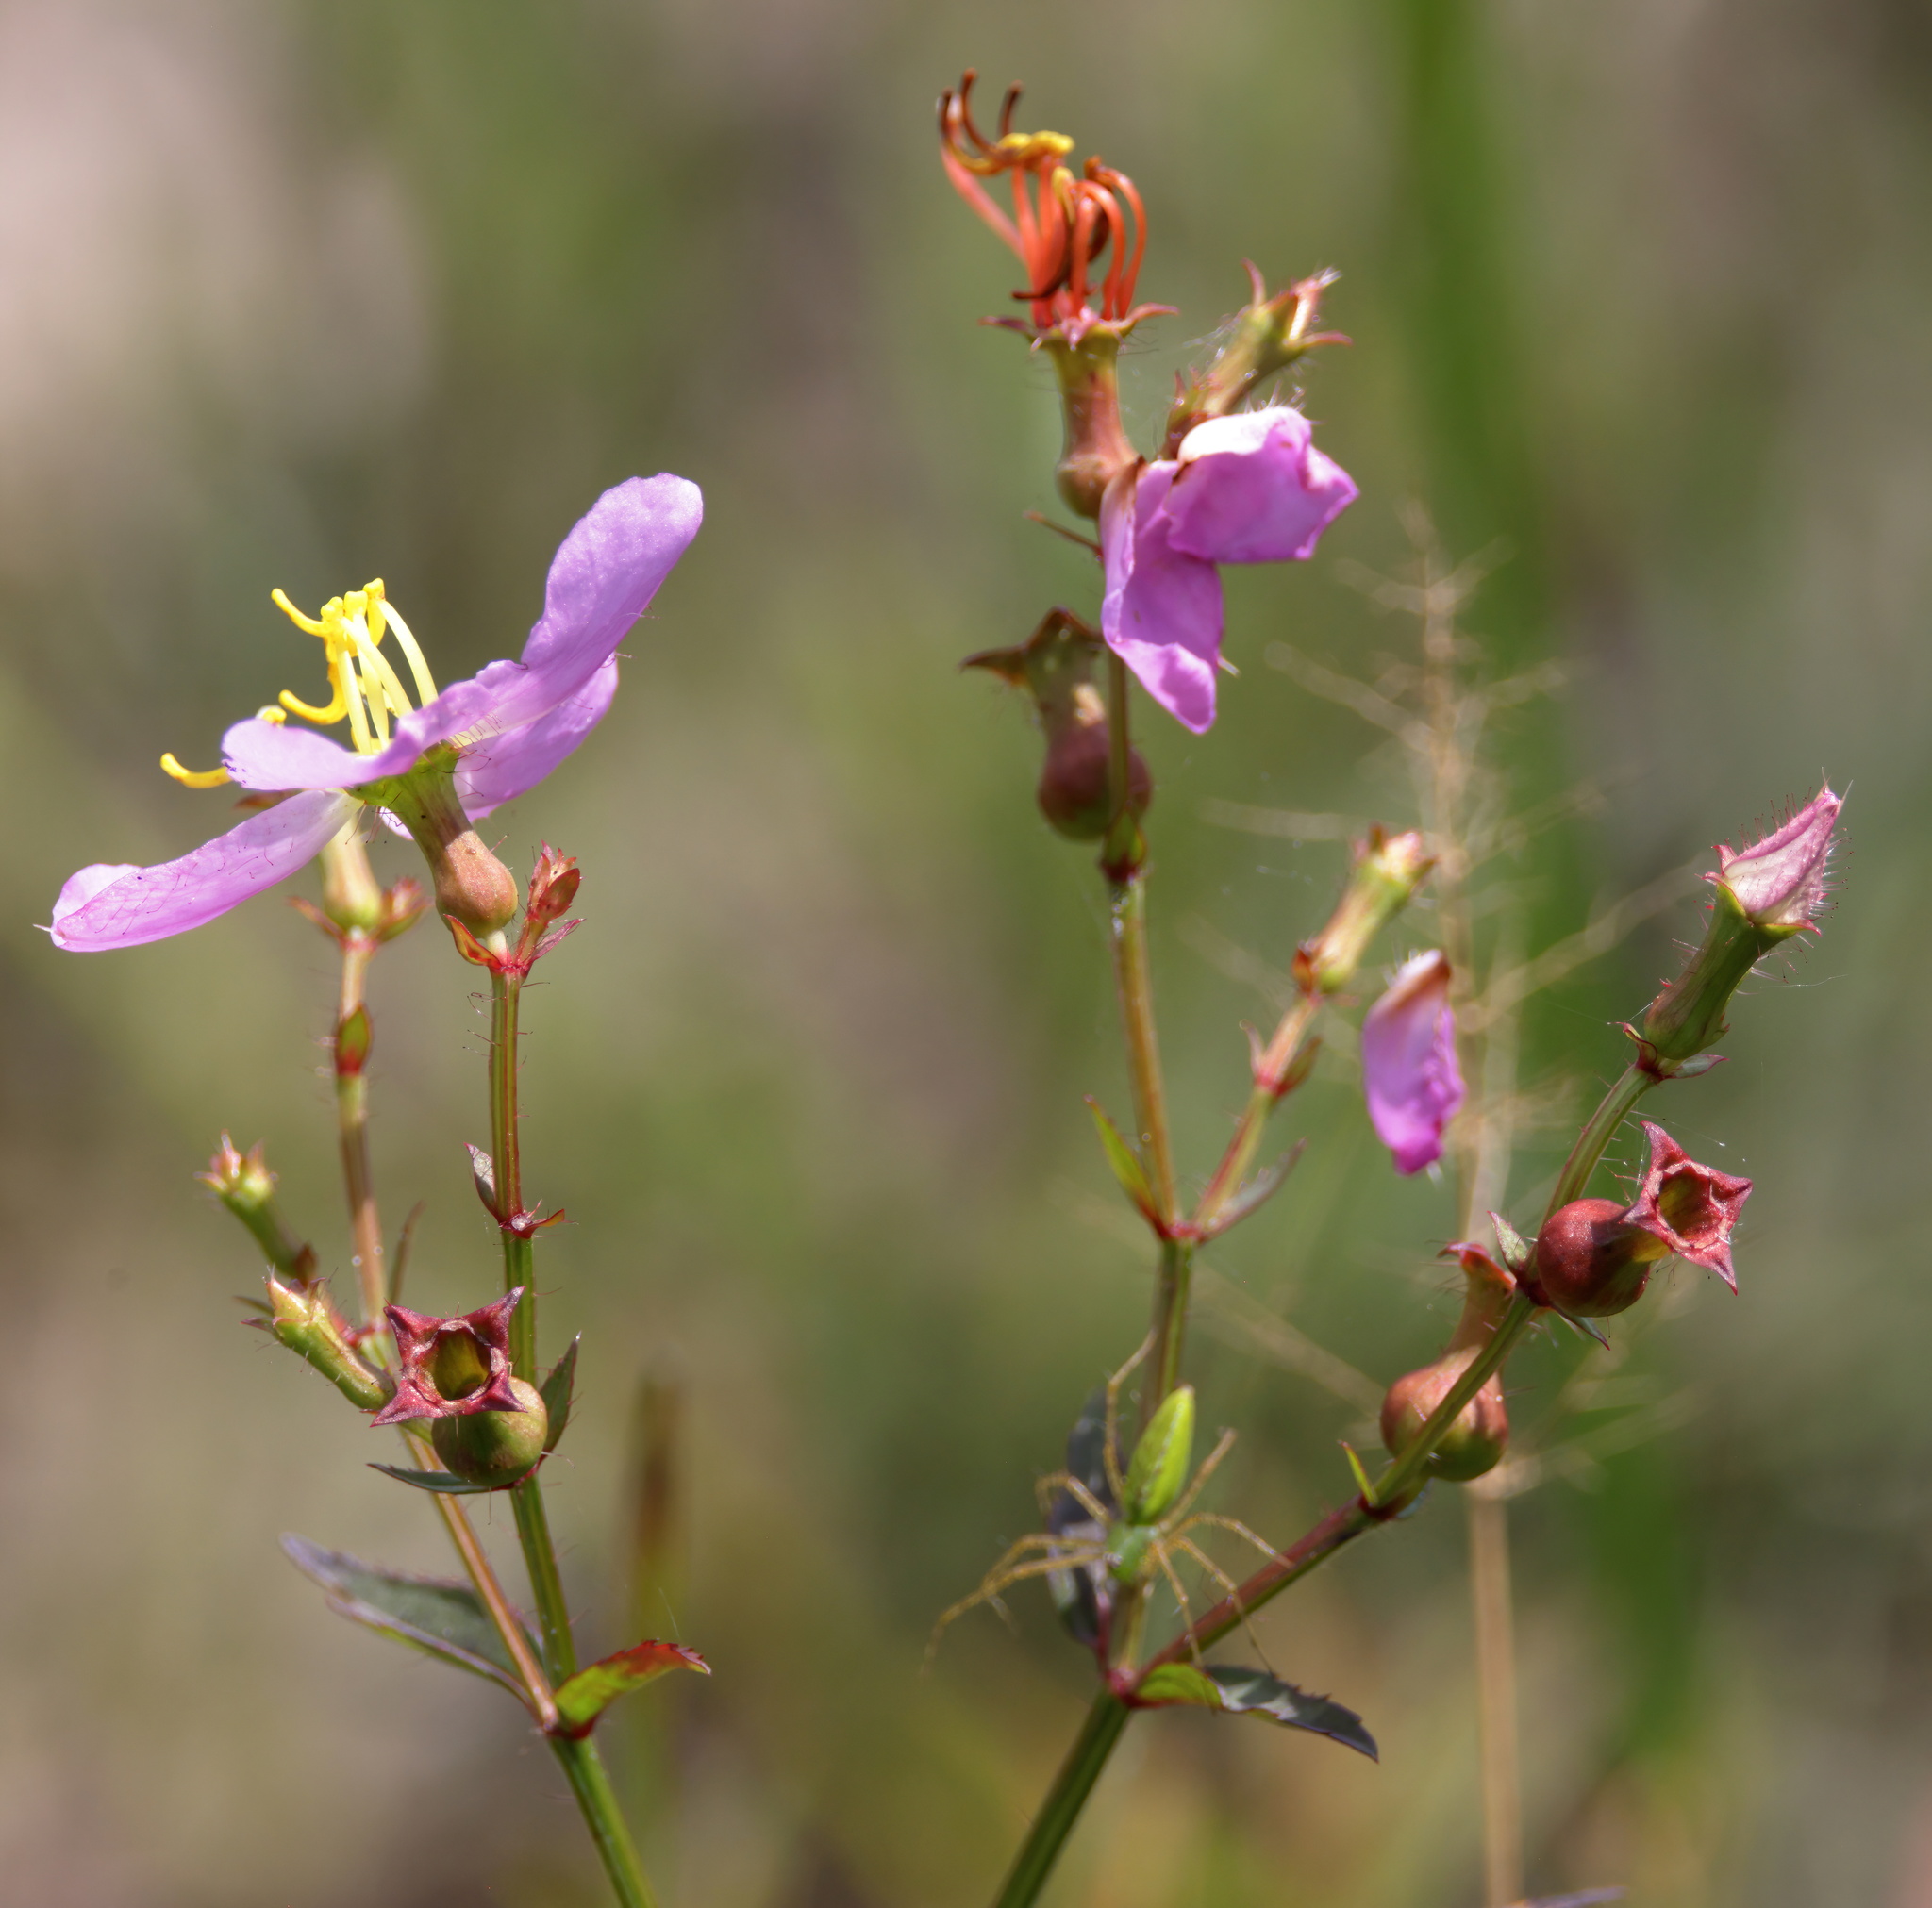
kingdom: Plantae
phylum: Tracheophyta
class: Magnoliopsida
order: Myrtales
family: Melastomataceae
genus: Rhexia
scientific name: Rhexia mariana
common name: Dull meadow-pitcher
